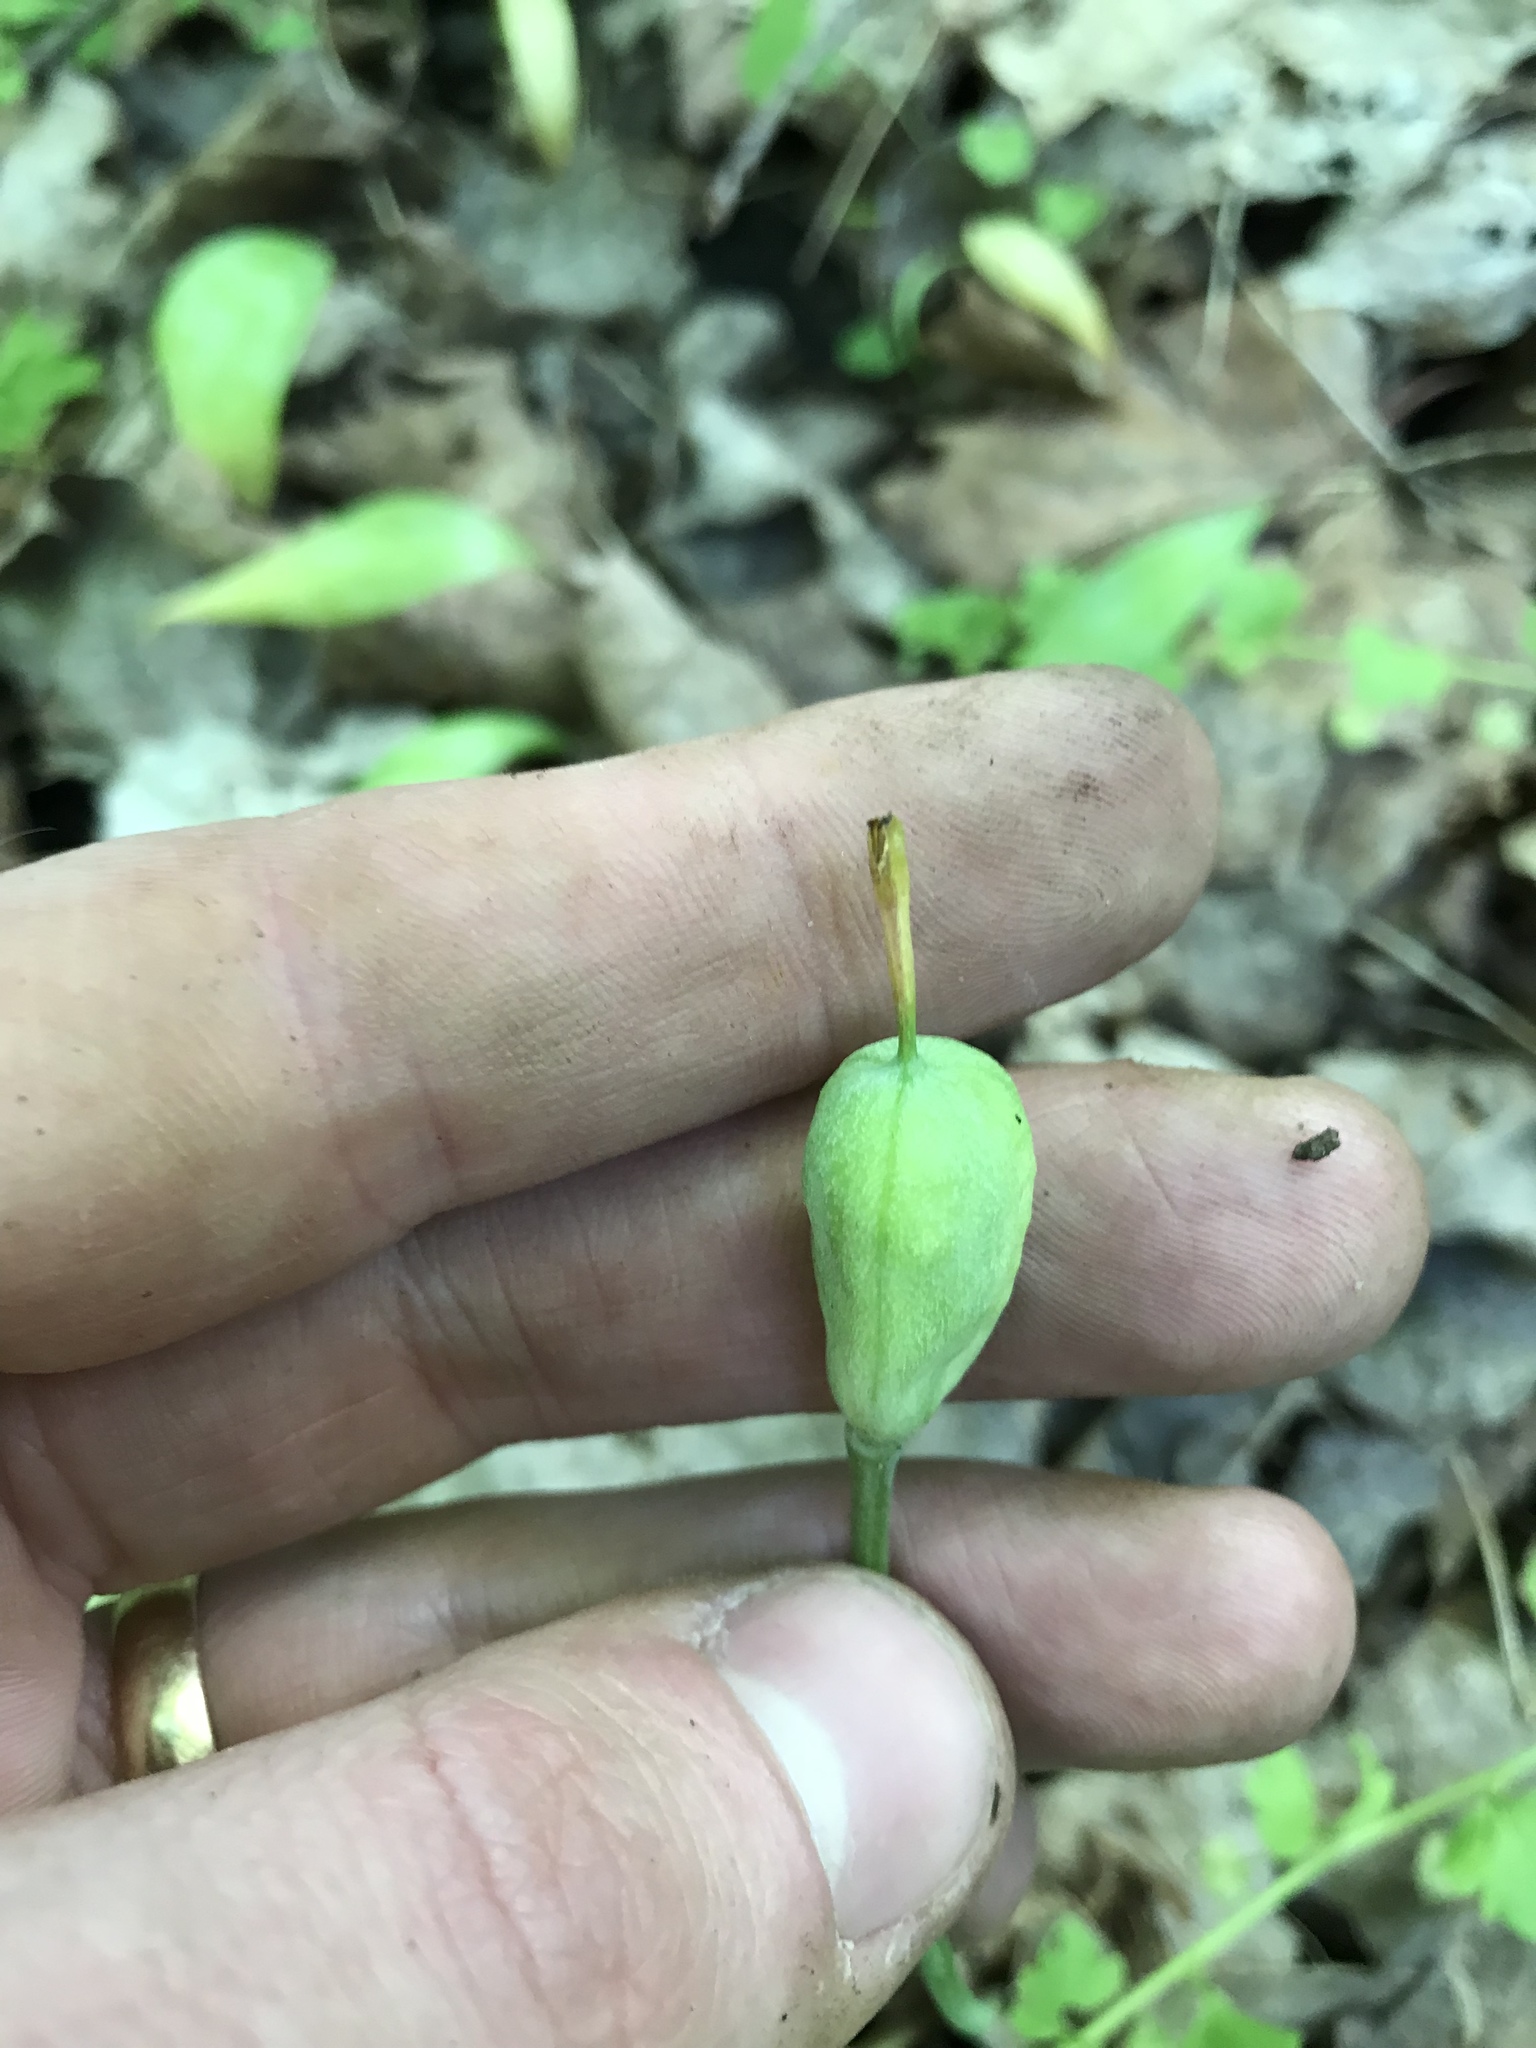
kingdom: Plantae
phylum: Tracheophyta
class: Liliopsida
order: Liliales
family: Liliaceae
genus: Erythronium
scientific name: Erythronium americanum
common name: Yellow adder's-tongue
